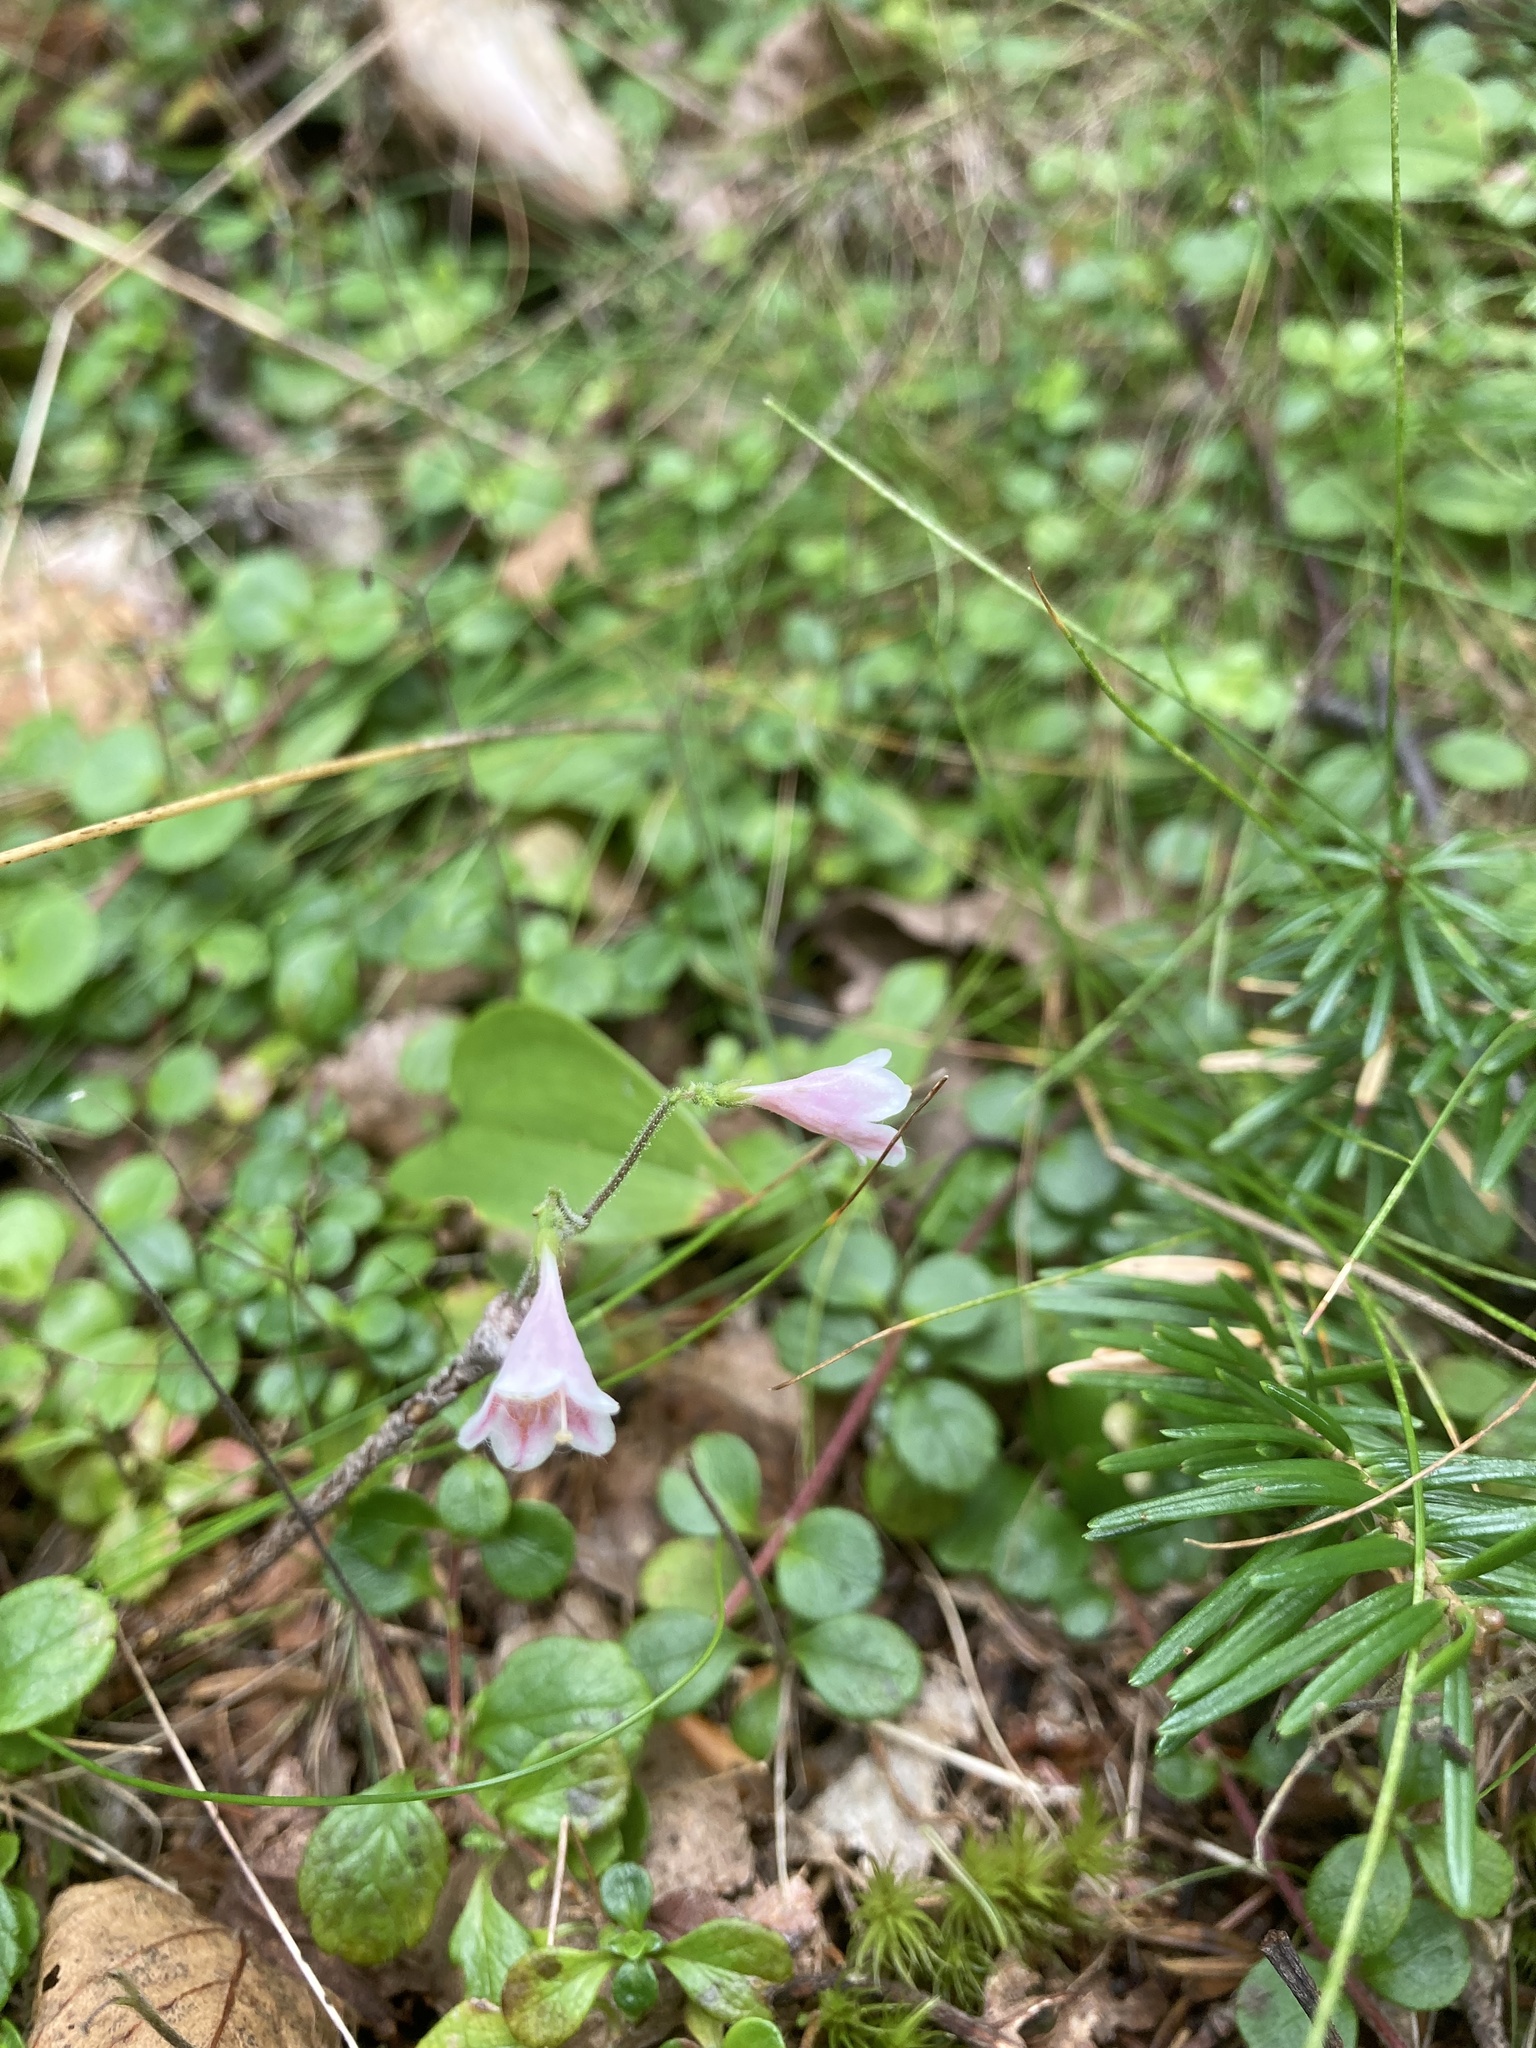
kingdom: Plantae
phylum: Tracheophyta
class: Magnoliopsida
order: Dipsacales
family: Caprifoliaceae
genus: Linnaea
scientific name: Linnaea borealis
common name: Twinflower
